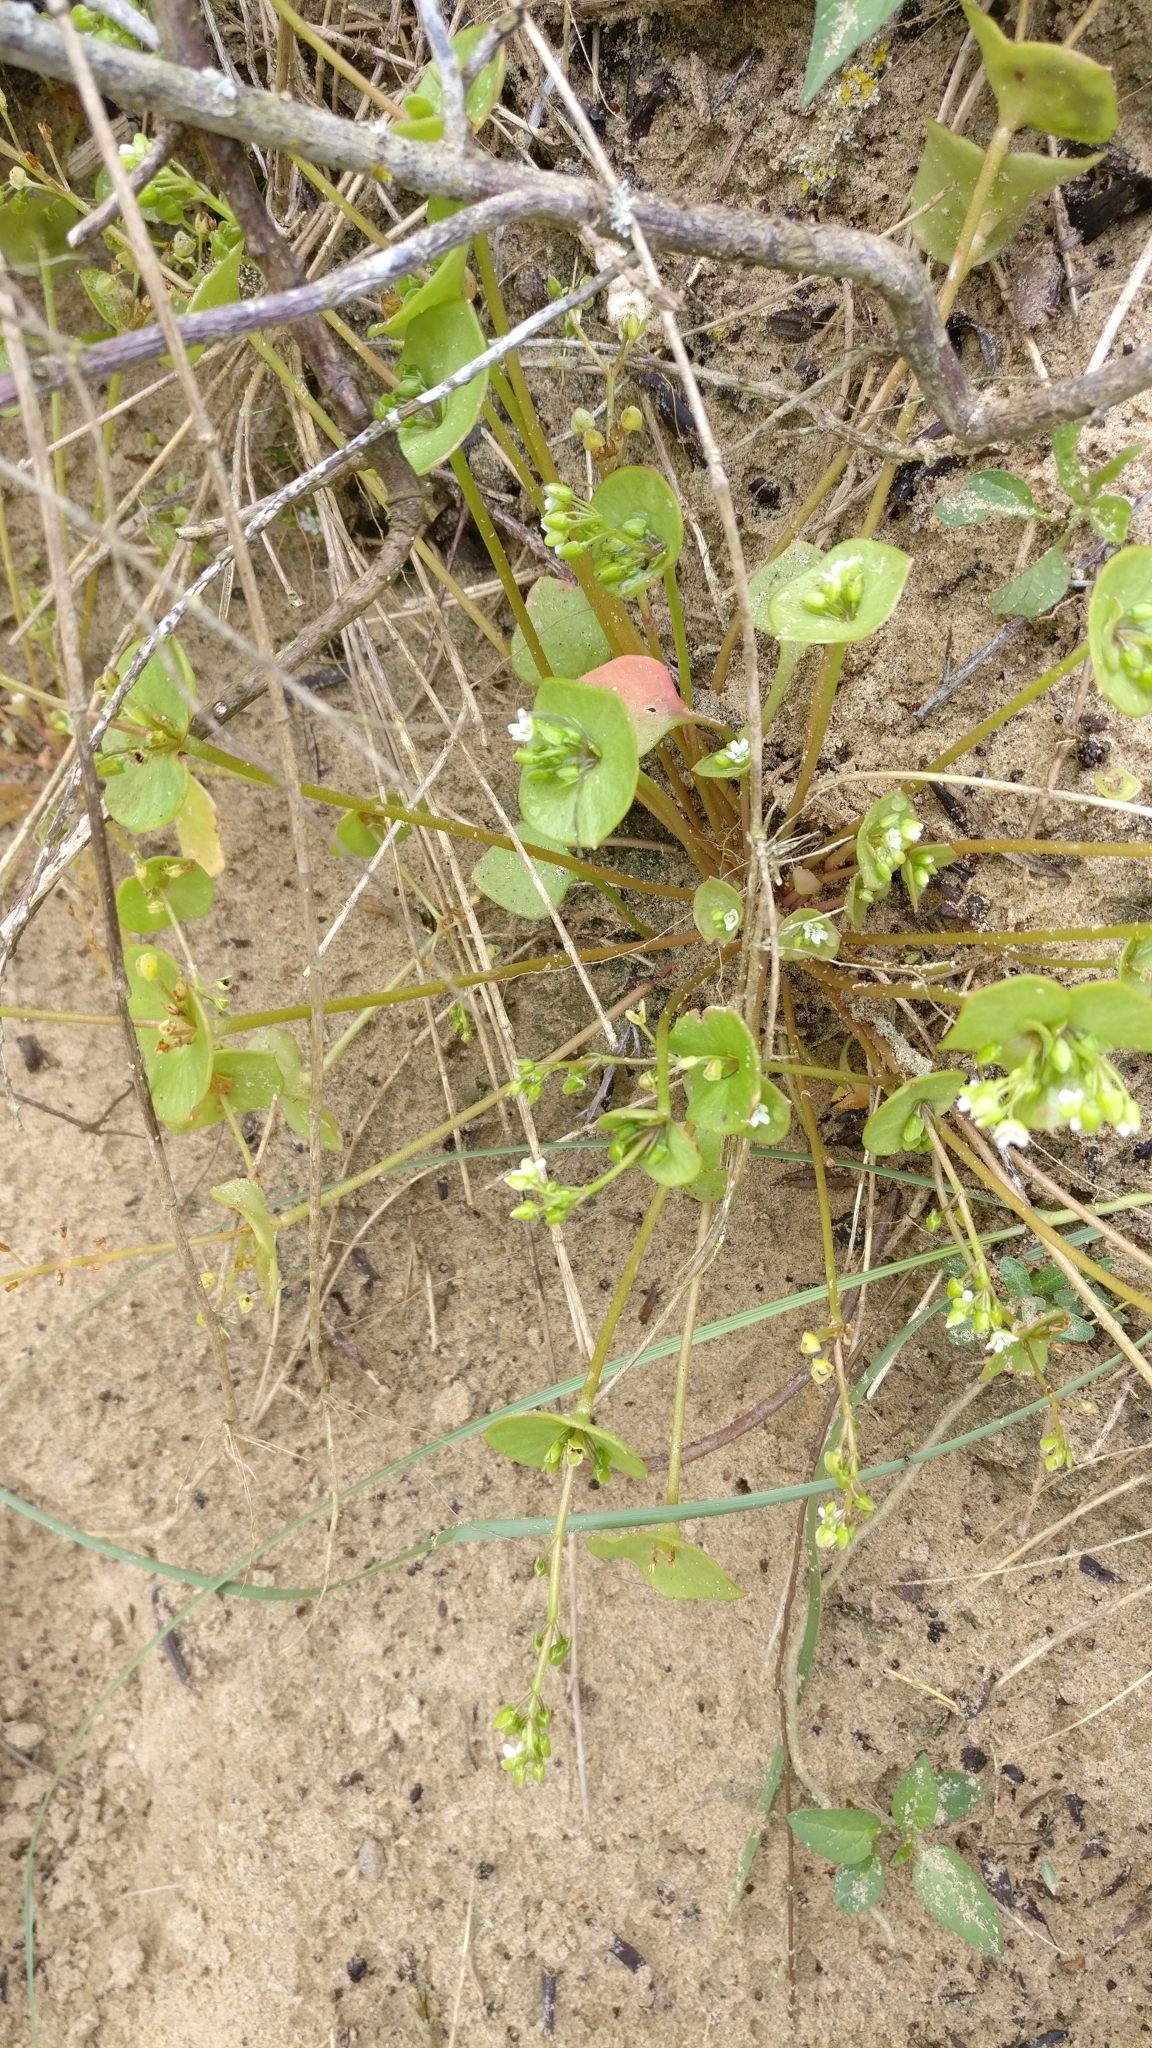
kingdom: Plantae
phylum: Tracheophyta
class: Magnoliopsida
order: Caryophyllales
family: Montiaceae
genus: Claytonia
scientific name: Claytonia perfoliata
